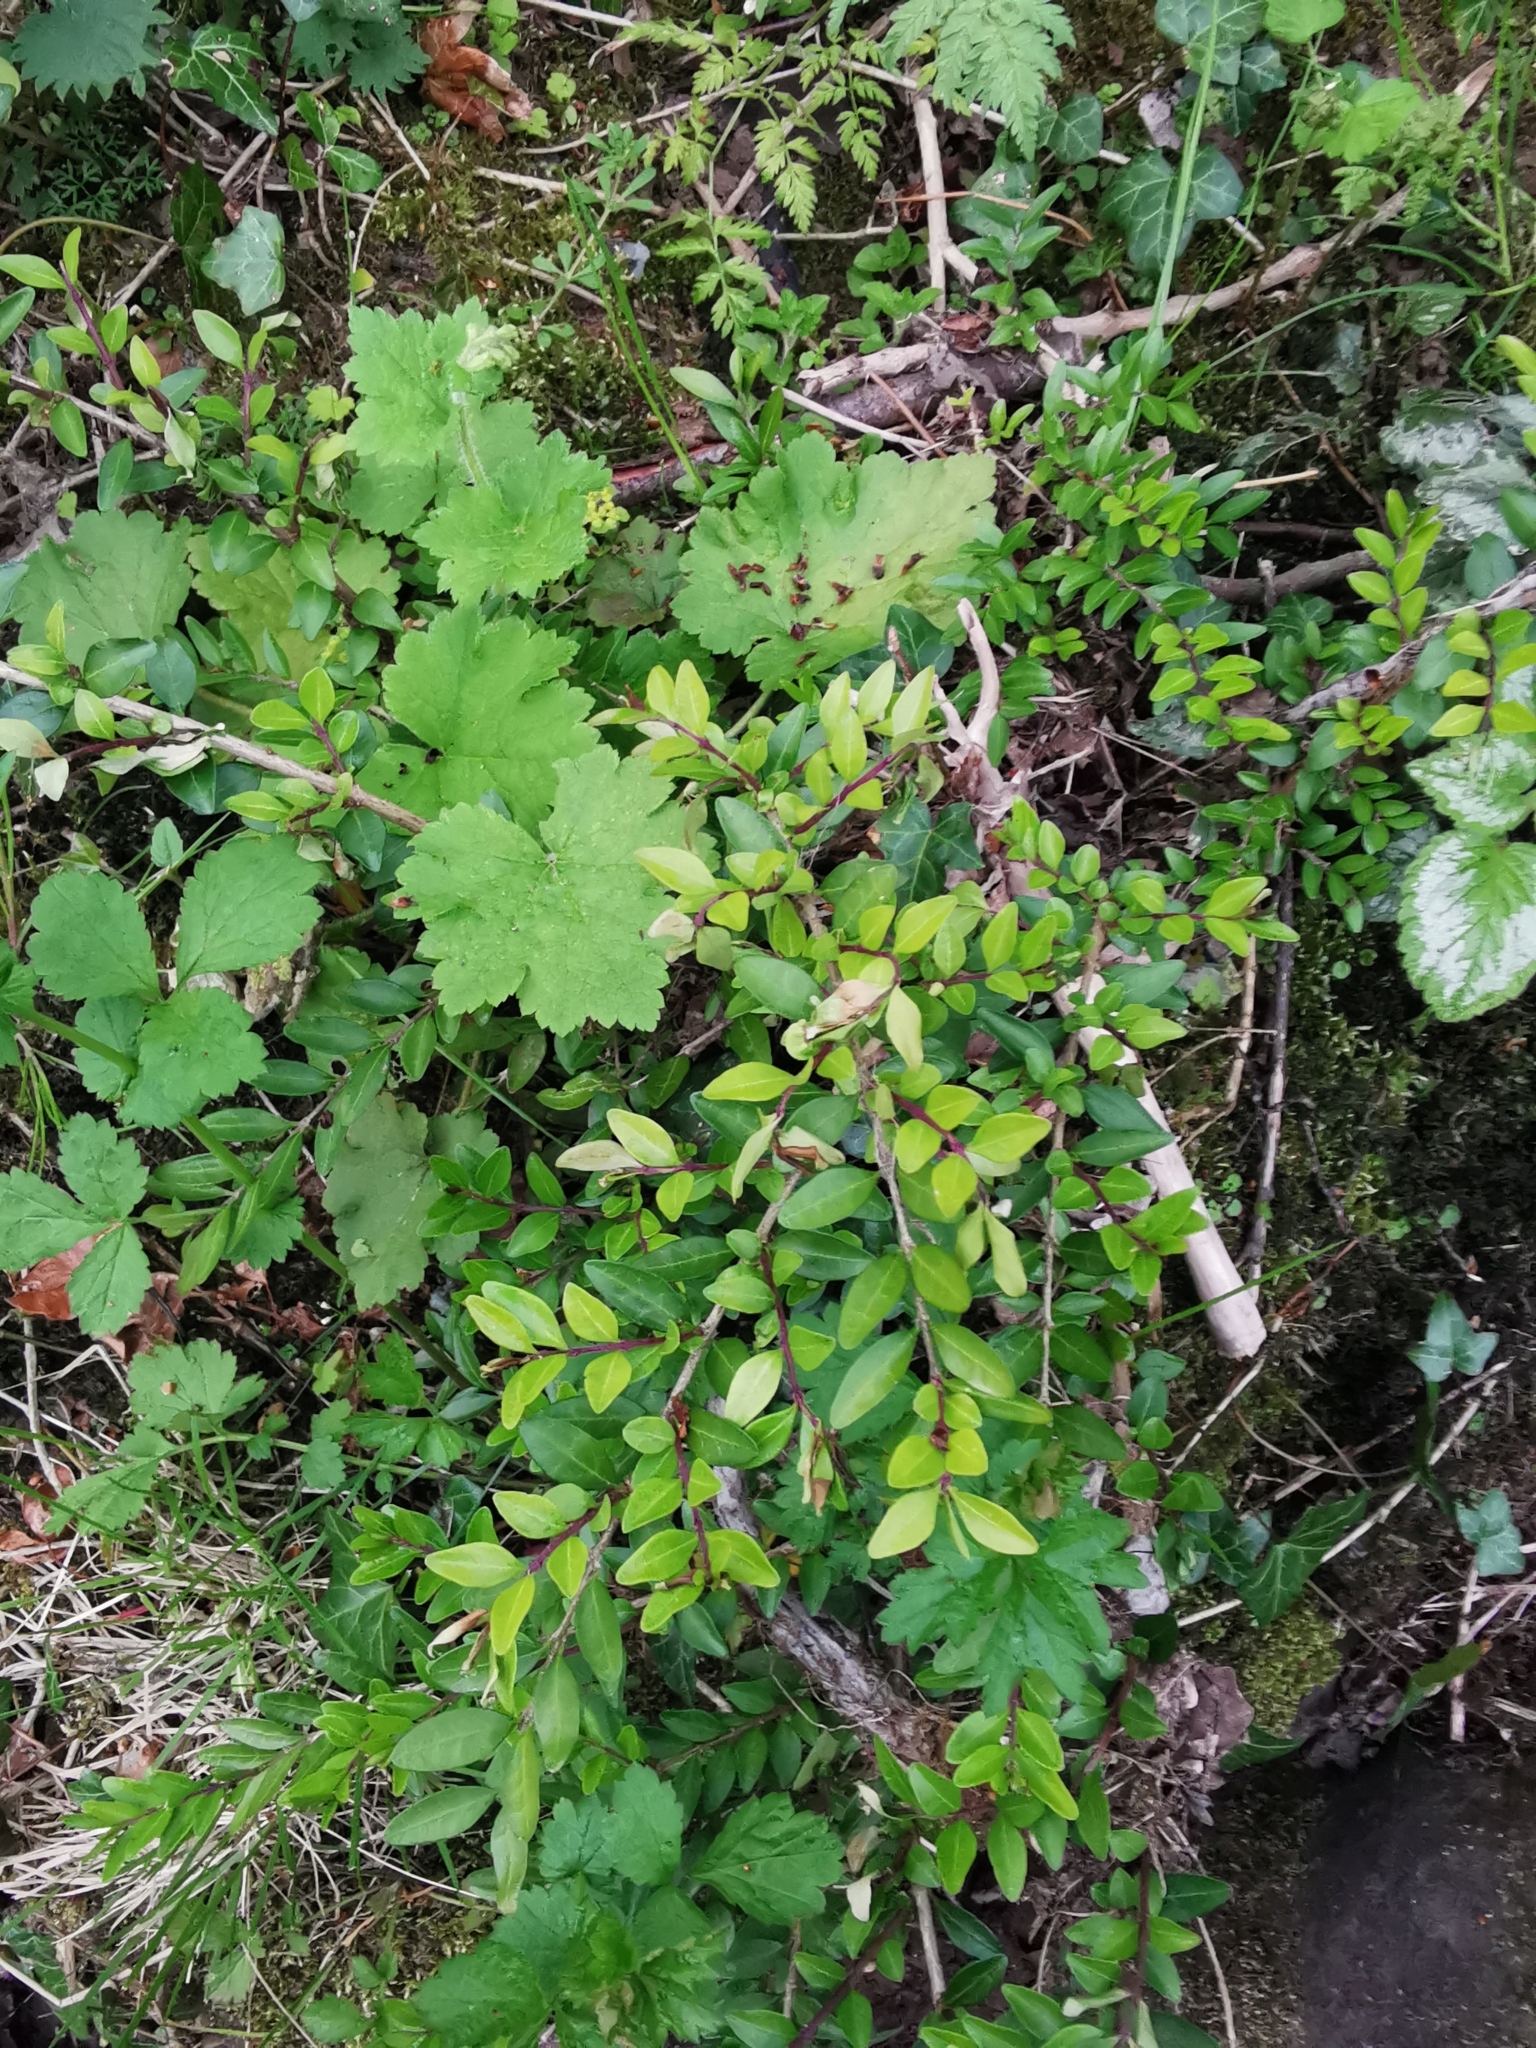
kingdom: Plantae
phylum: Tracheophyta
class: Magnoliopsida
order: Dipsacales
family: Caprifoliaceae
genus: Lonicera
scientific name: Lonicera pileata
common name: Box-leaved honeysuckle
